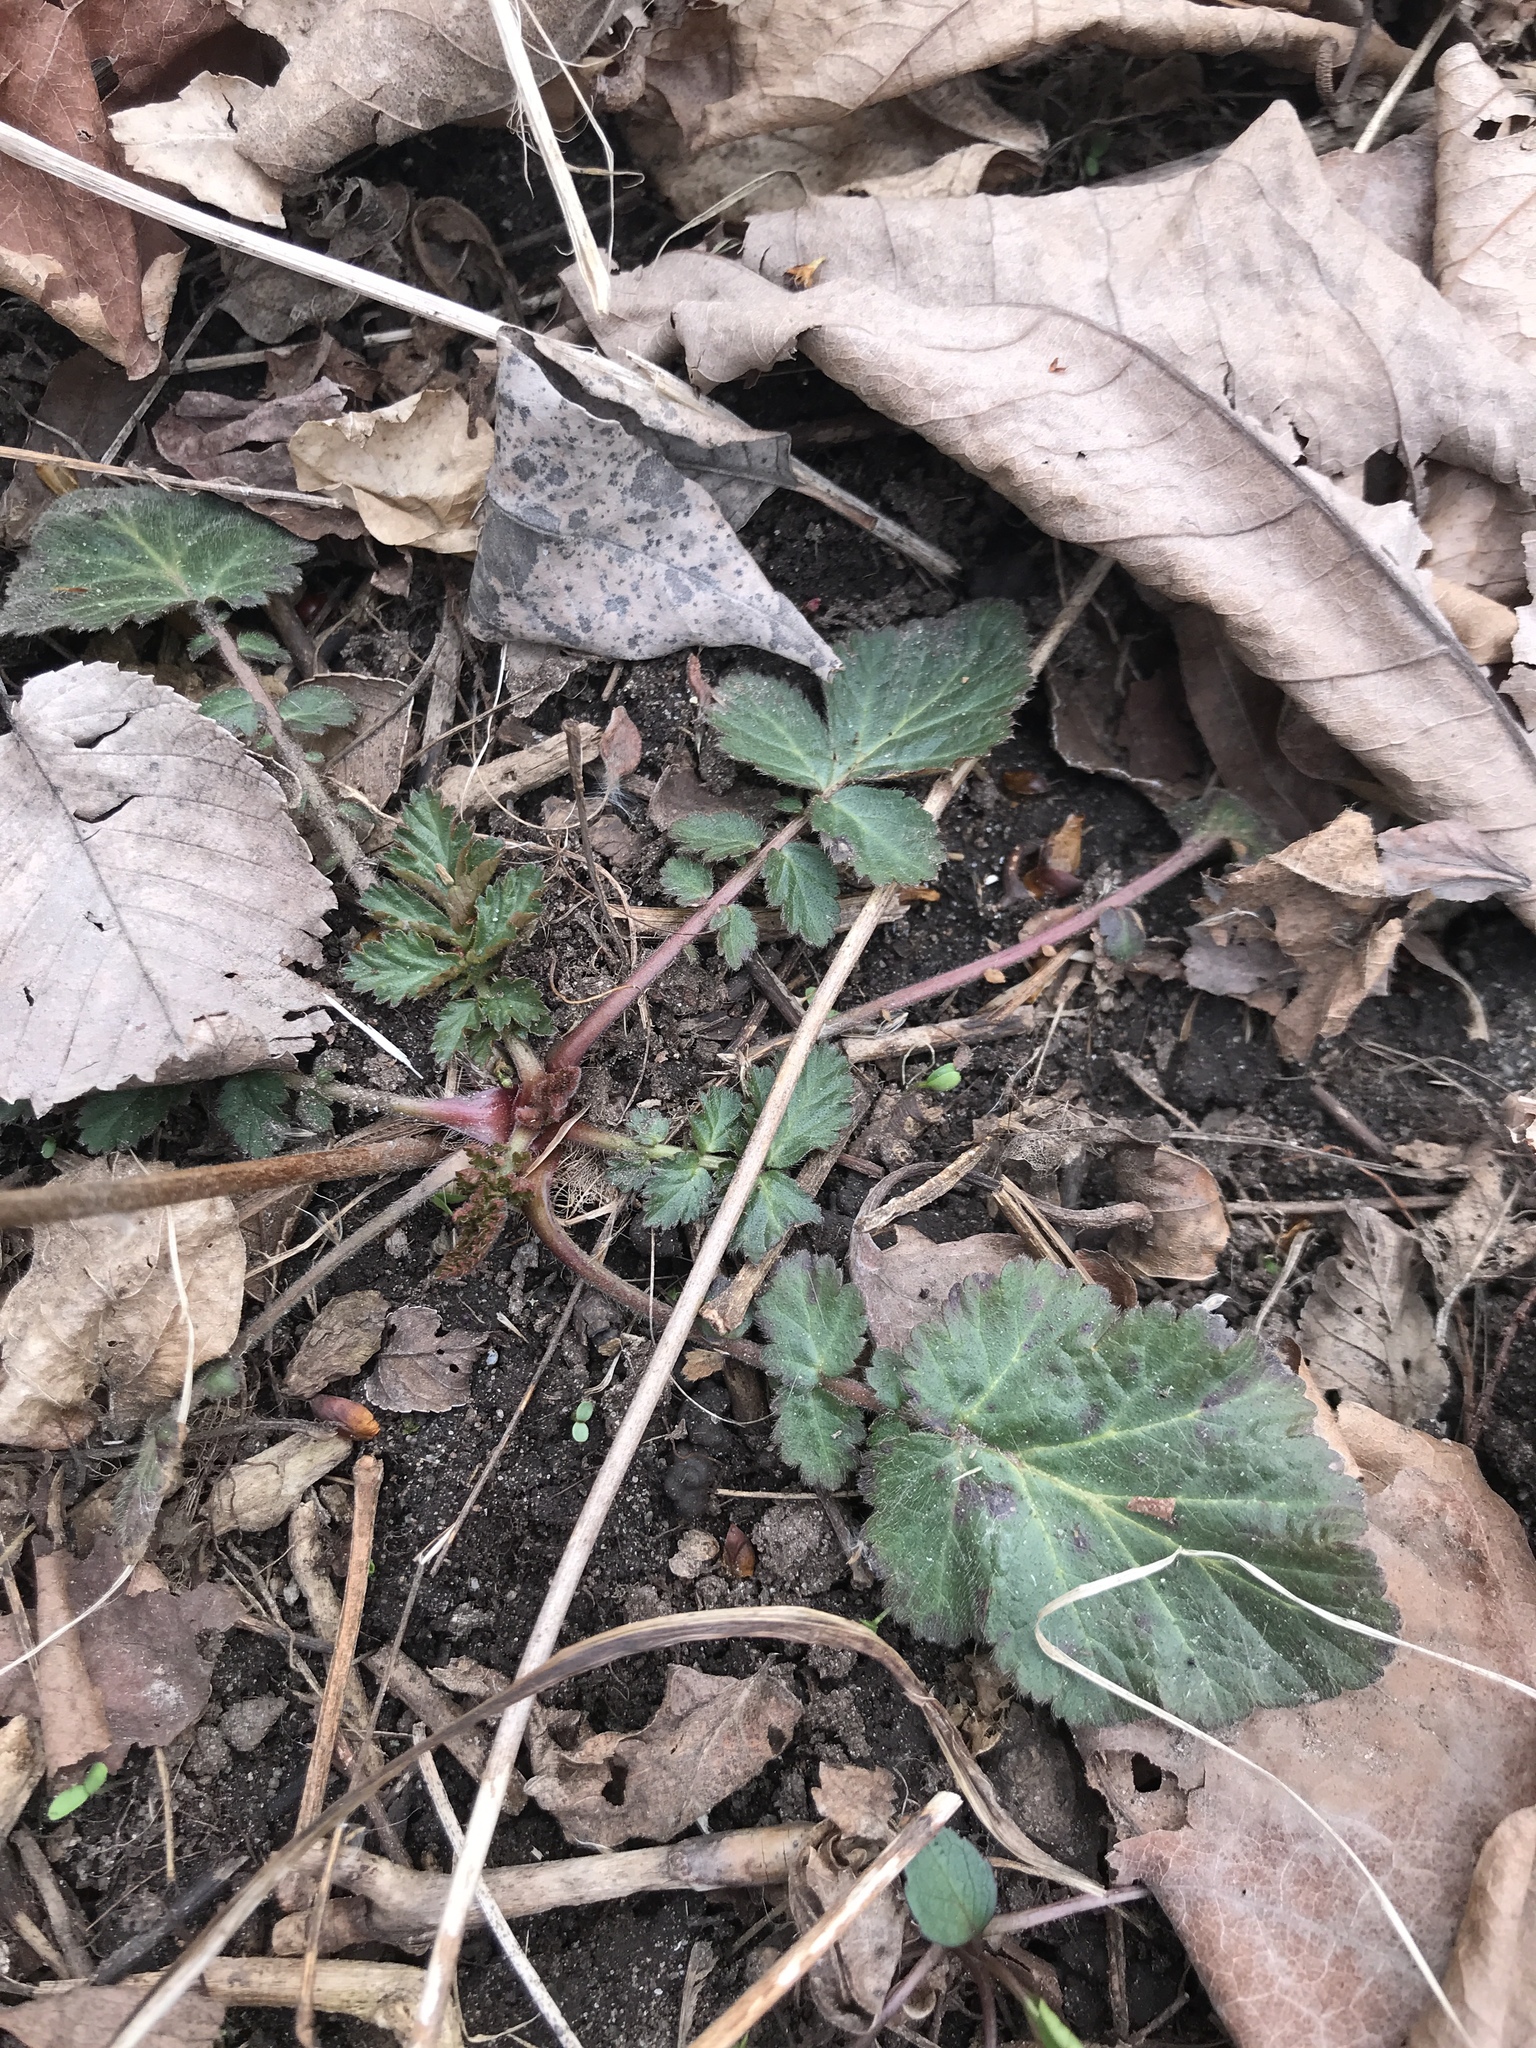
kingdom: Plantae
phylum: Tracheophyta
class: Magnoliopsida
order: Rosales
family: Rosaceae
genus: Geum
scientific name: Geum canadense
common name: White avens
